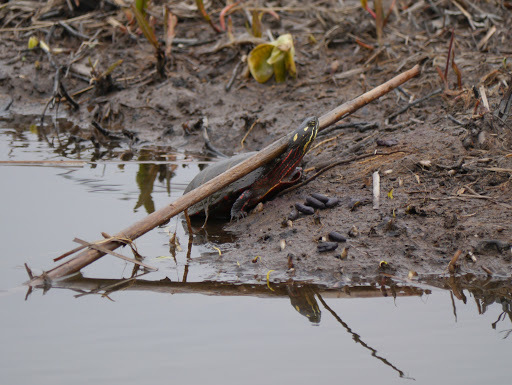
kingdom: Animalia
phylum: Chordata
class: Testudines
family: Emydidae
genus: Chrysemys
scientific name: Chrysemys picta
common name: Painted turtle
